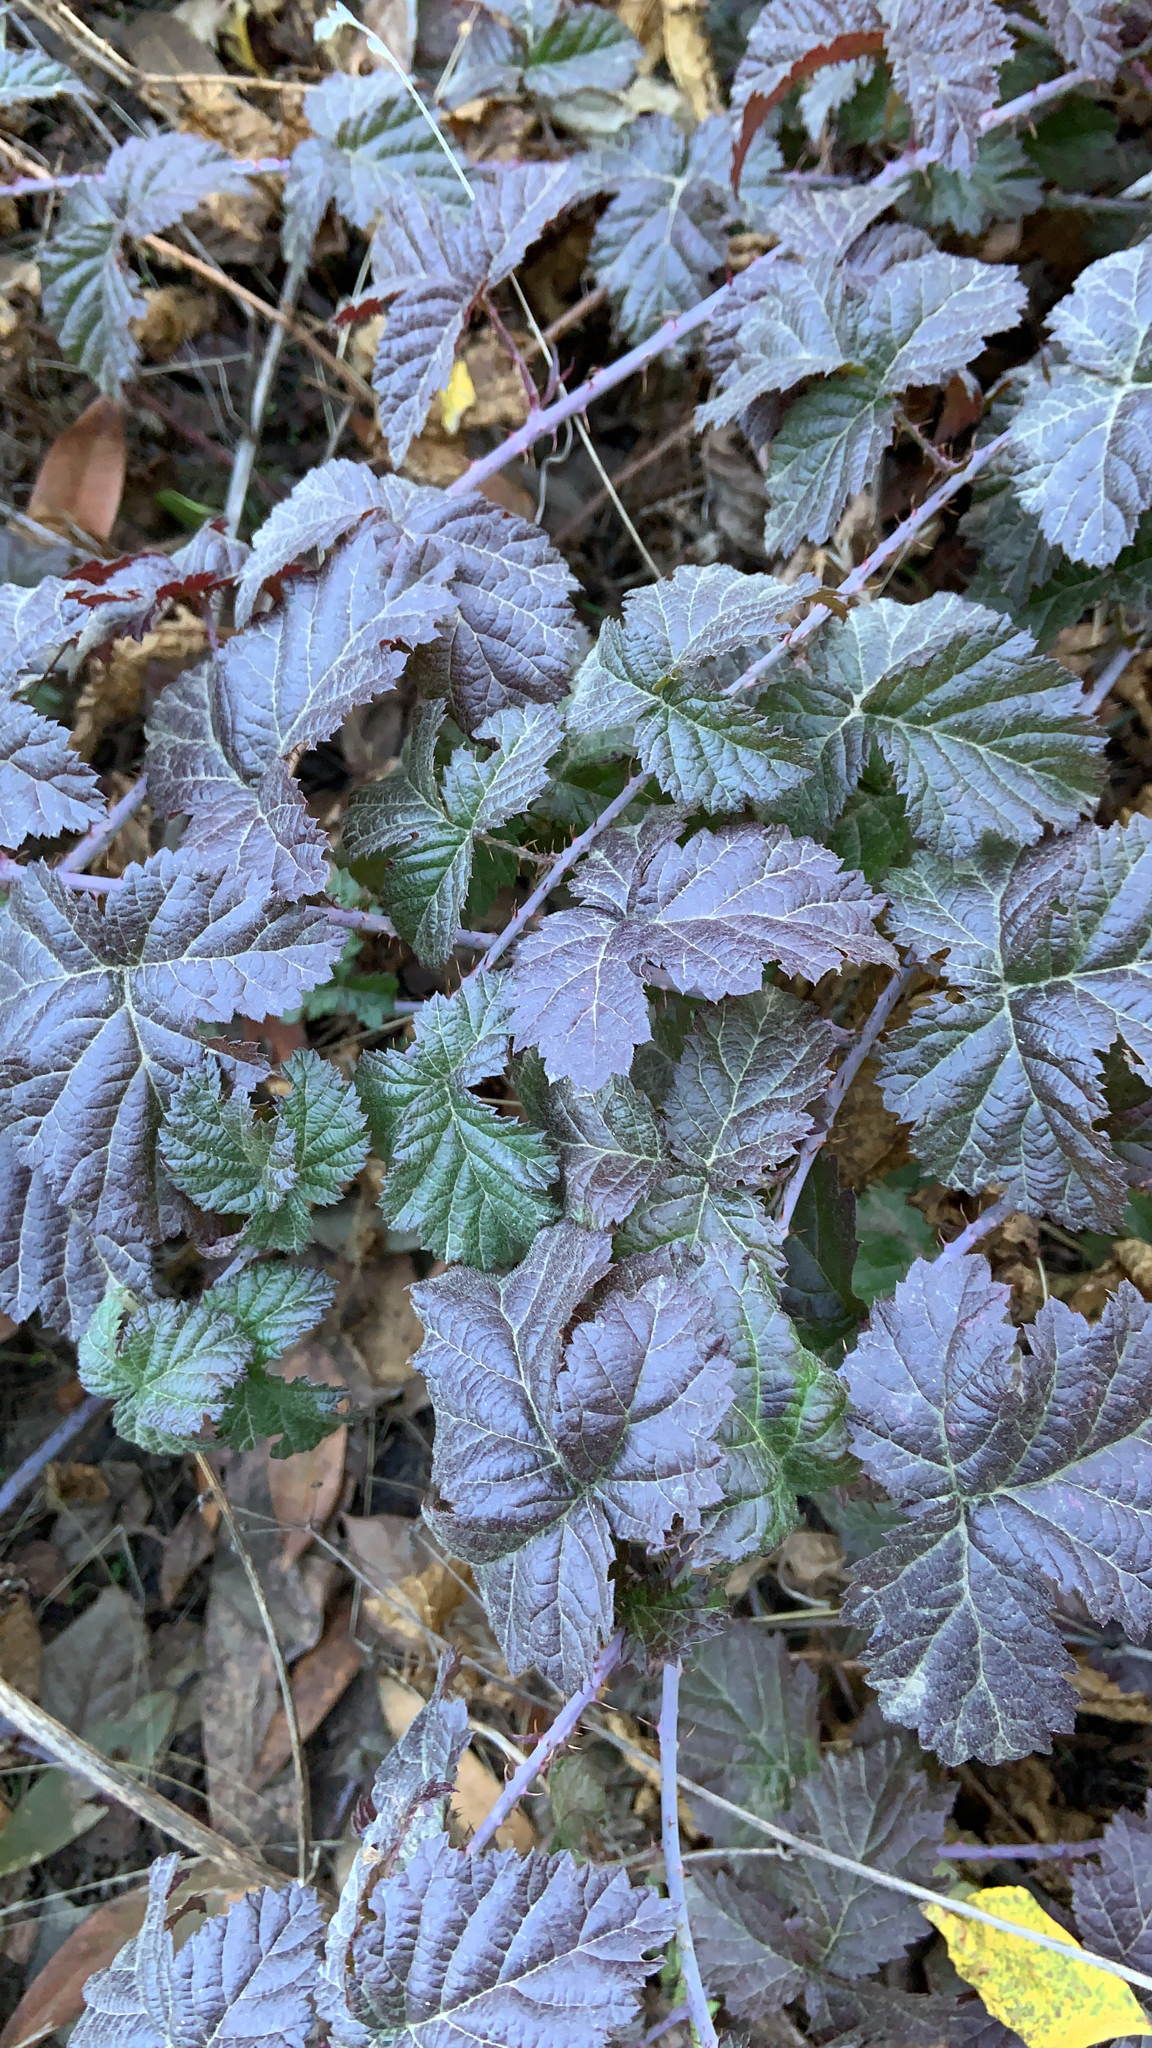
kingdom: Plantae
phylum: Tracheophyta
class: Magnoliopsida
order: Rosales
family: Rosaceae
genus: Rubus
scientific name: Rubus ursinus
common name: Pacific blackberry
